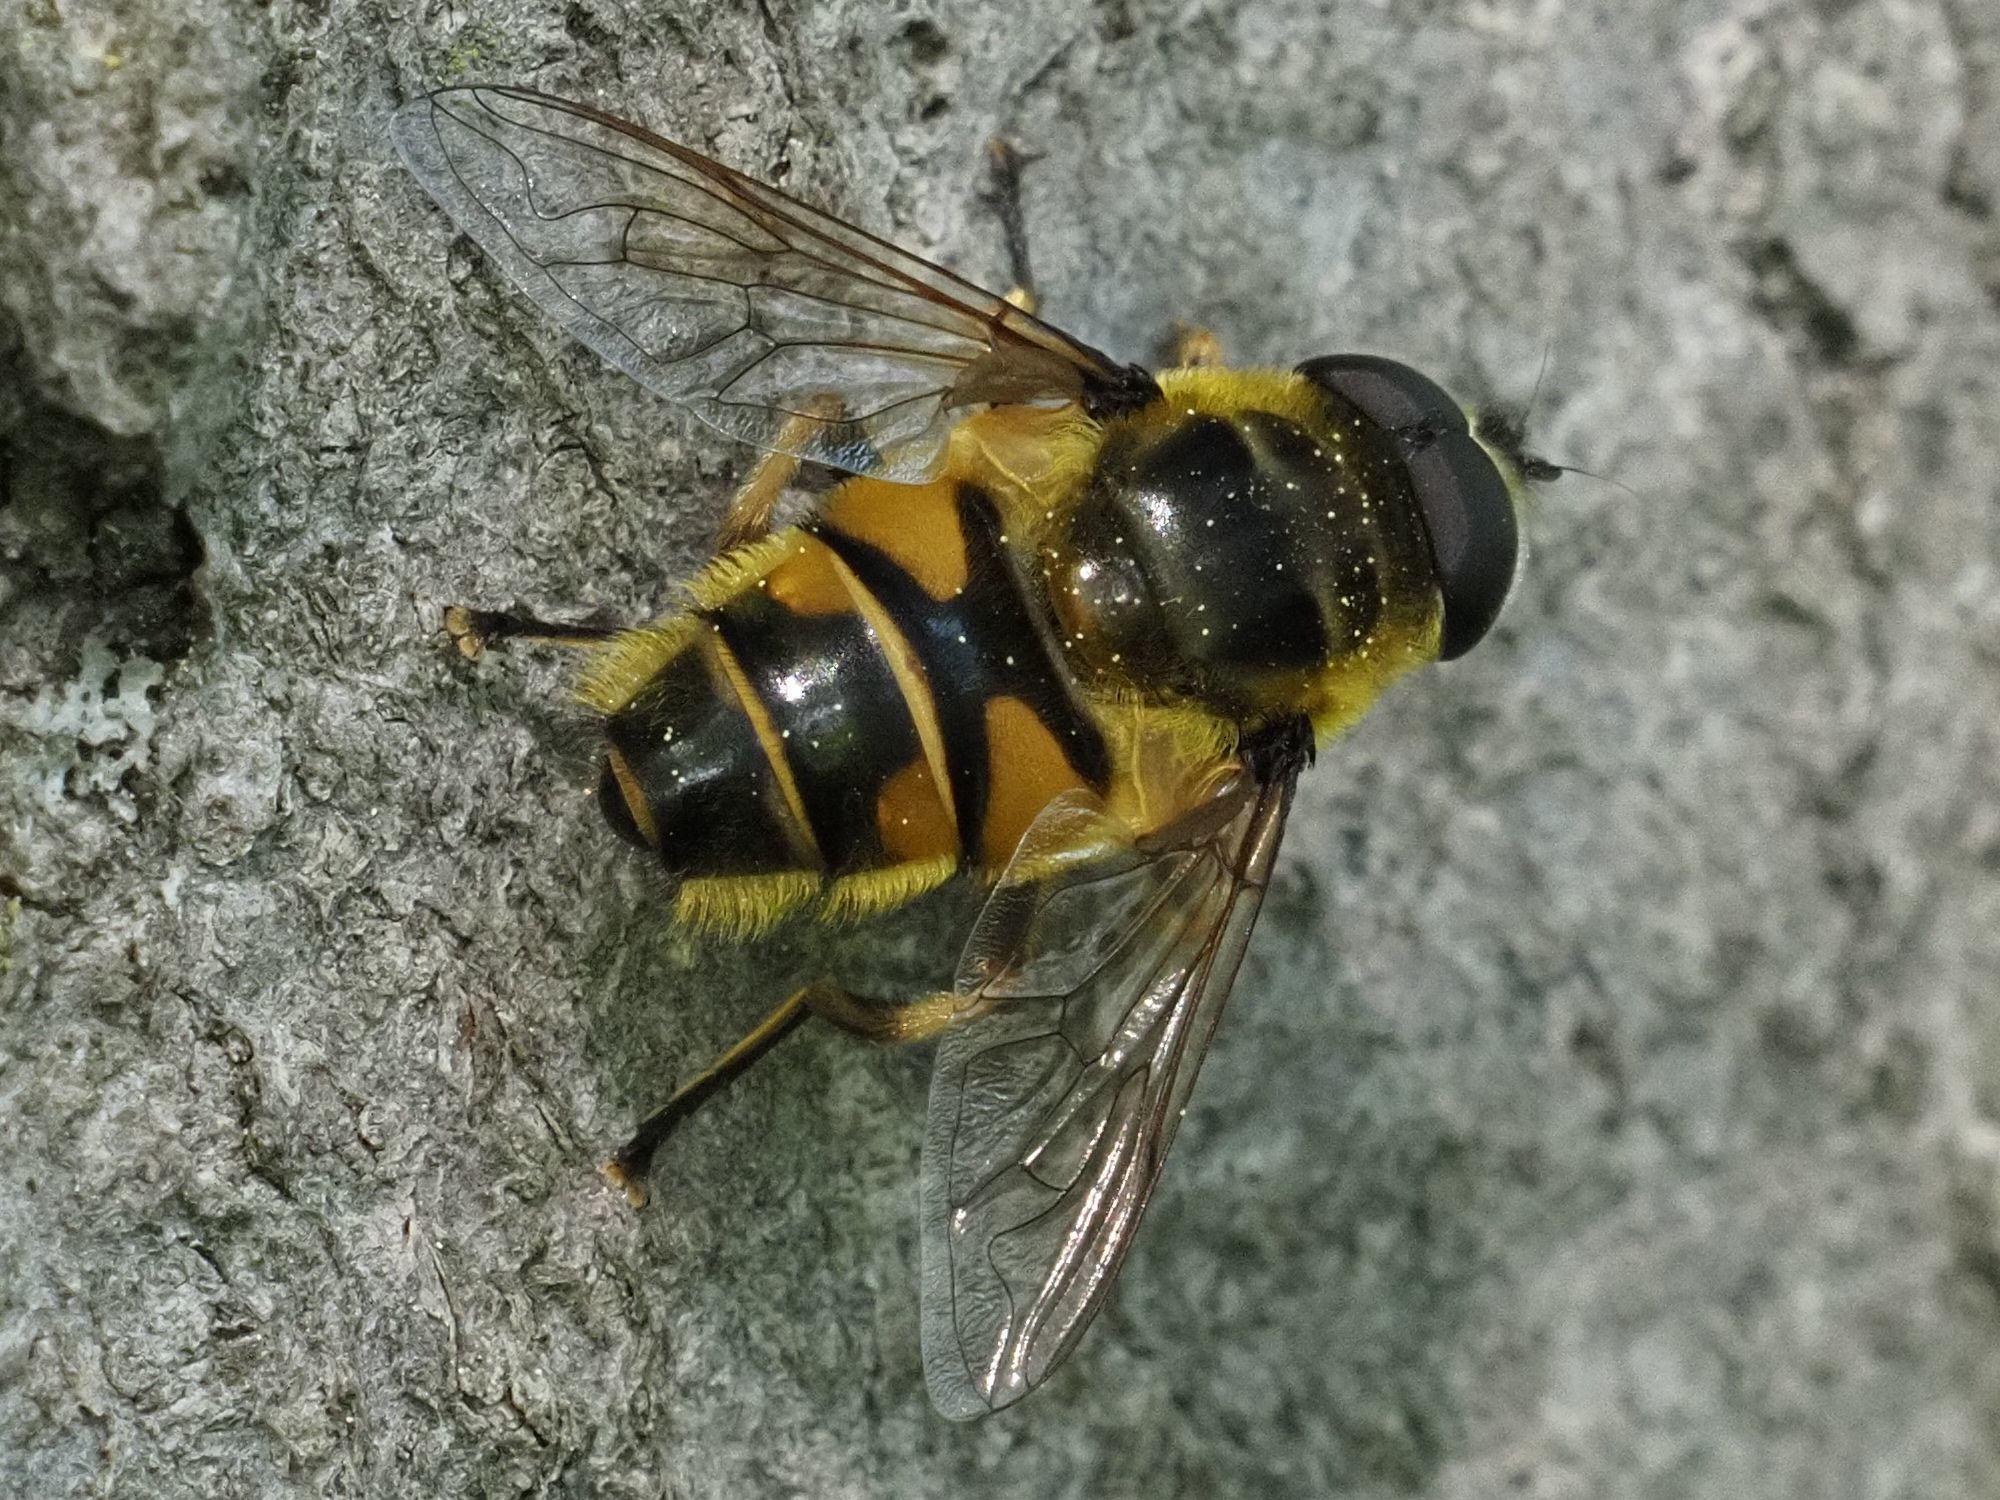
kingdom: Animalia
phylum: Arthropoda
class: Insecta
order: Diptera
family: Syrphidae
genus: Myathropa
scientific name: Myathropa florea
